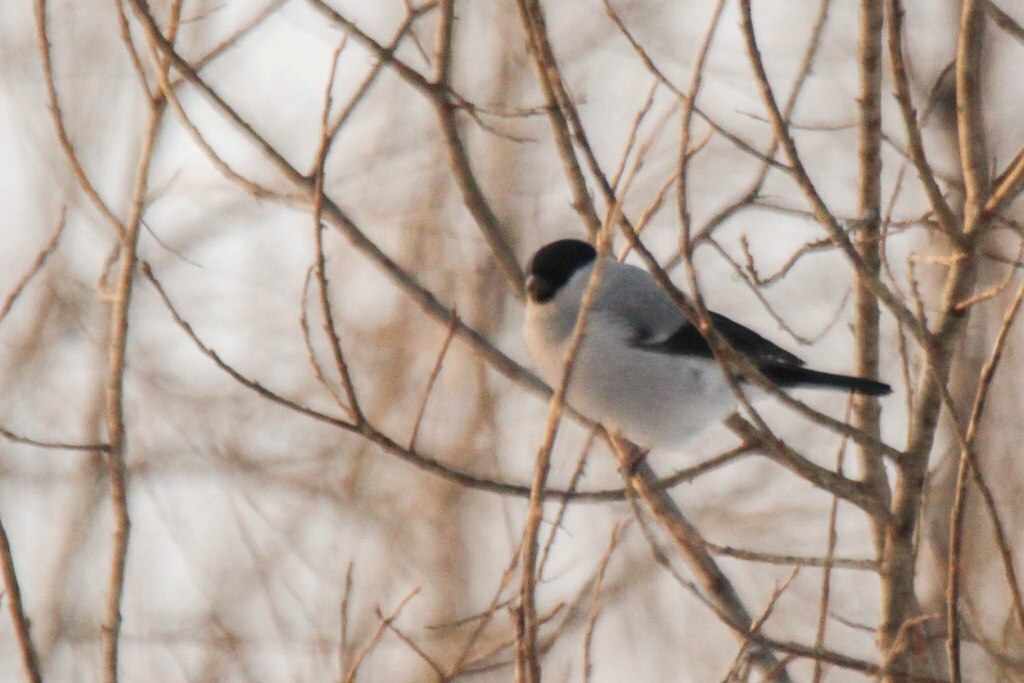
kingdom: Animalia
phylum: Chordata
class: Aves
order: Passeriformes
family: Fringillidae
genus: Pyrrhula
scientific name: Pyrrhula pyrrhula
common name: Eurasian bullfinch
